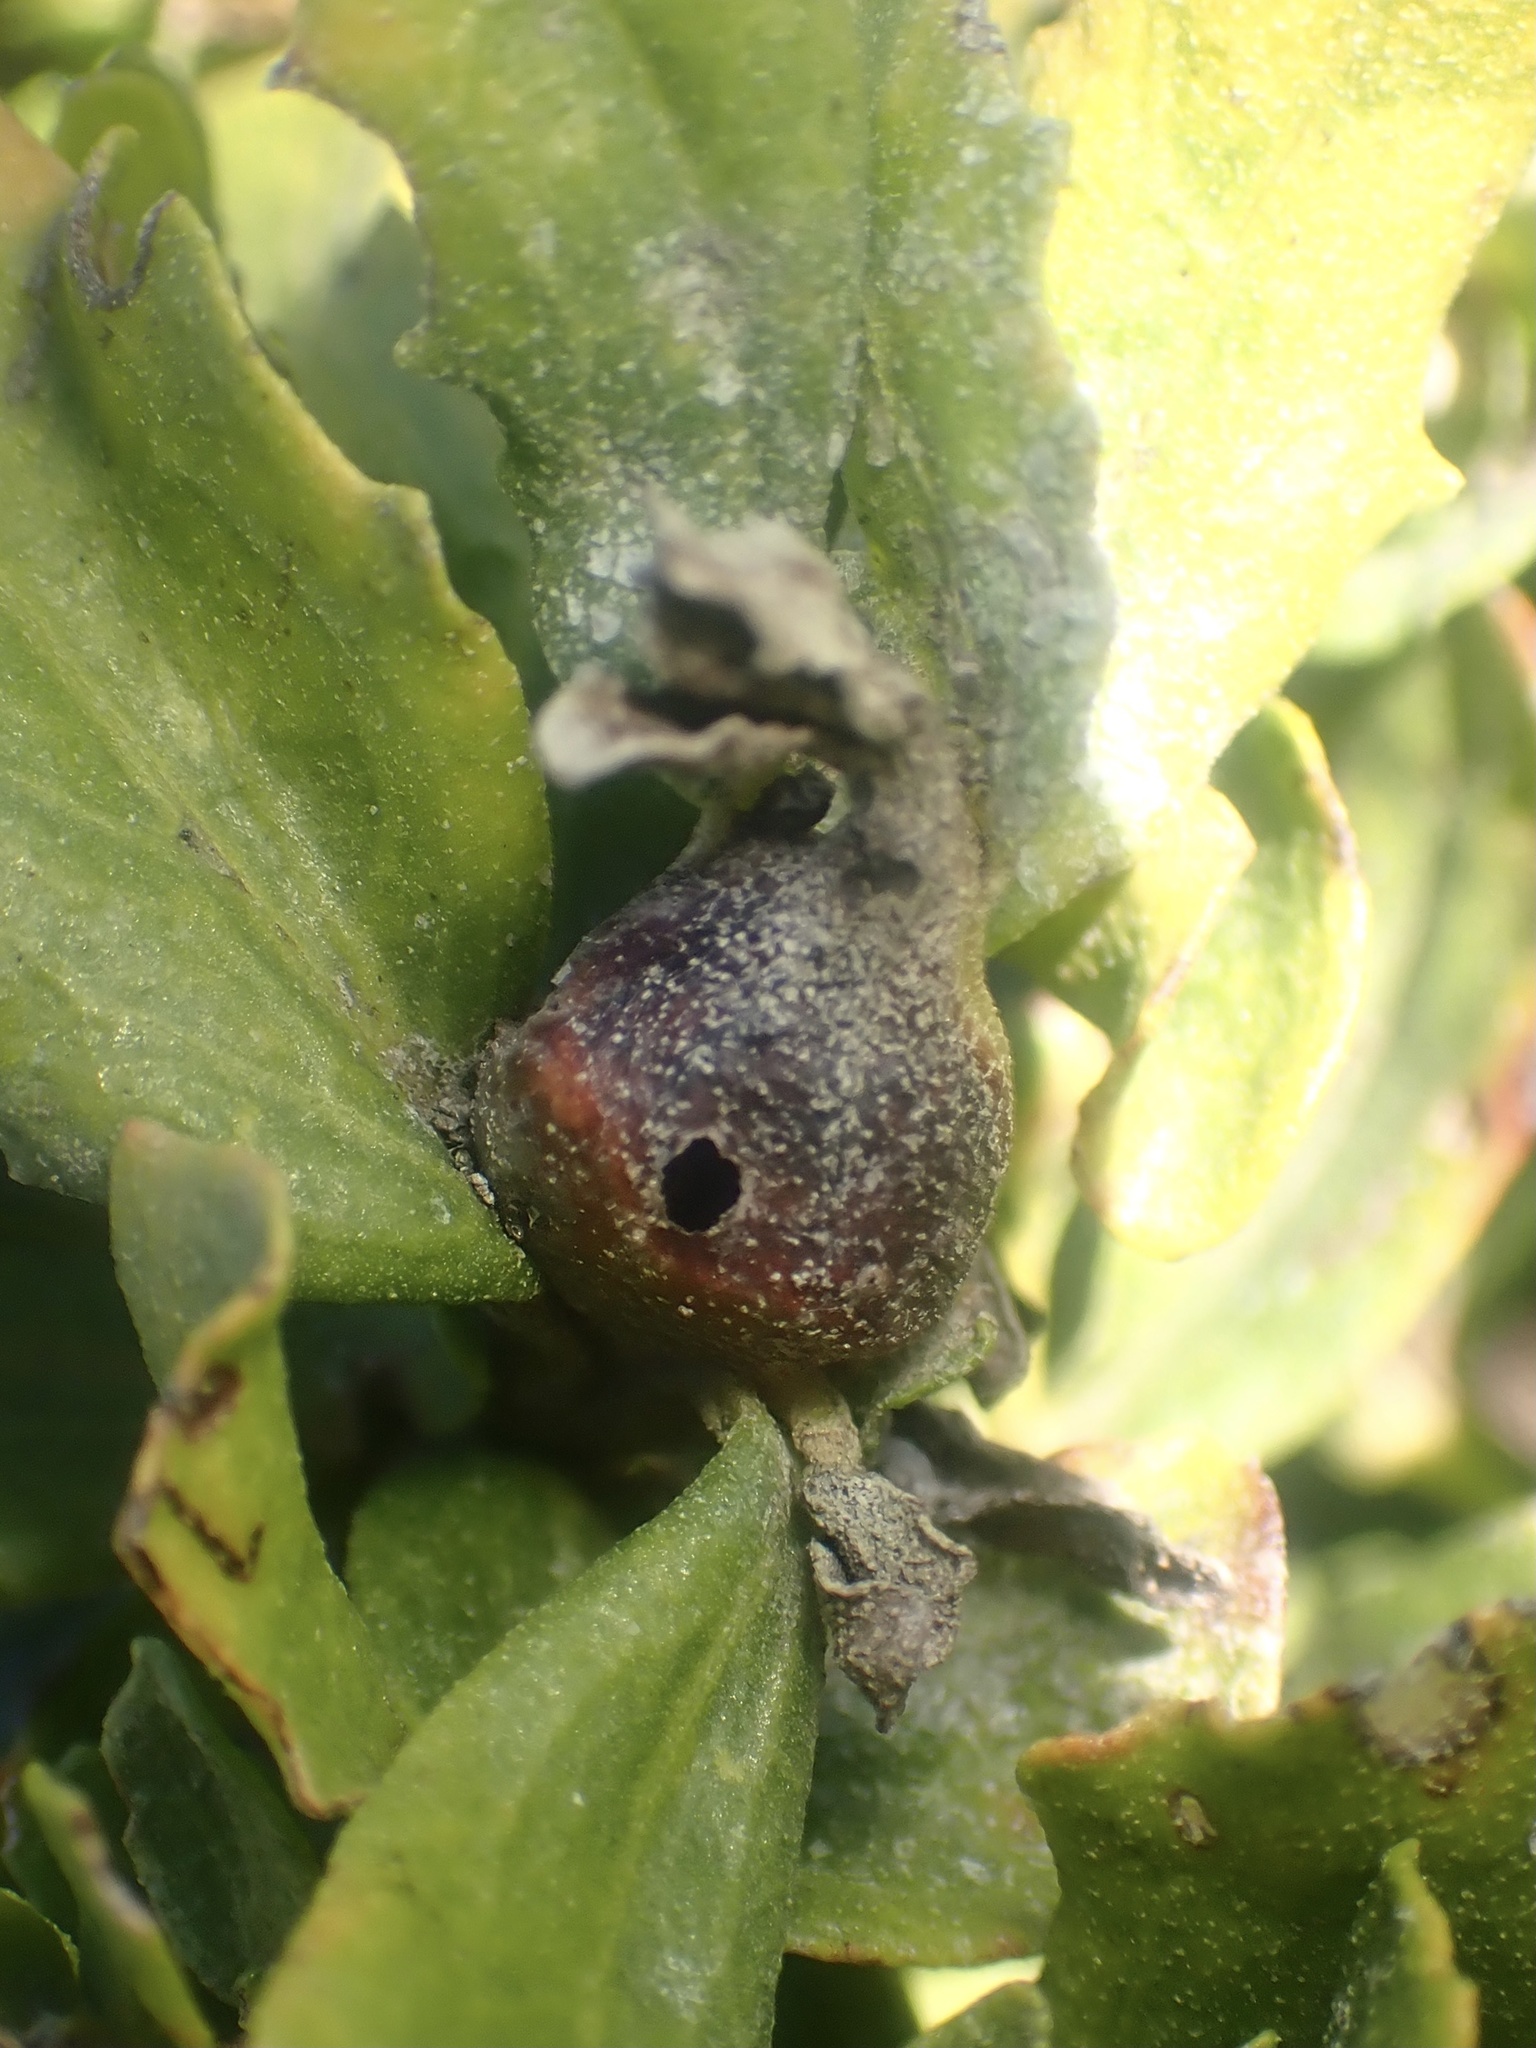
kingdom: Animalia
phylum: Arthropoda
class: Insecta
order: Diptera
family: Cecidomyiidae
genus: Rhopalomyia
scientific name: Rhopalomyia californica
